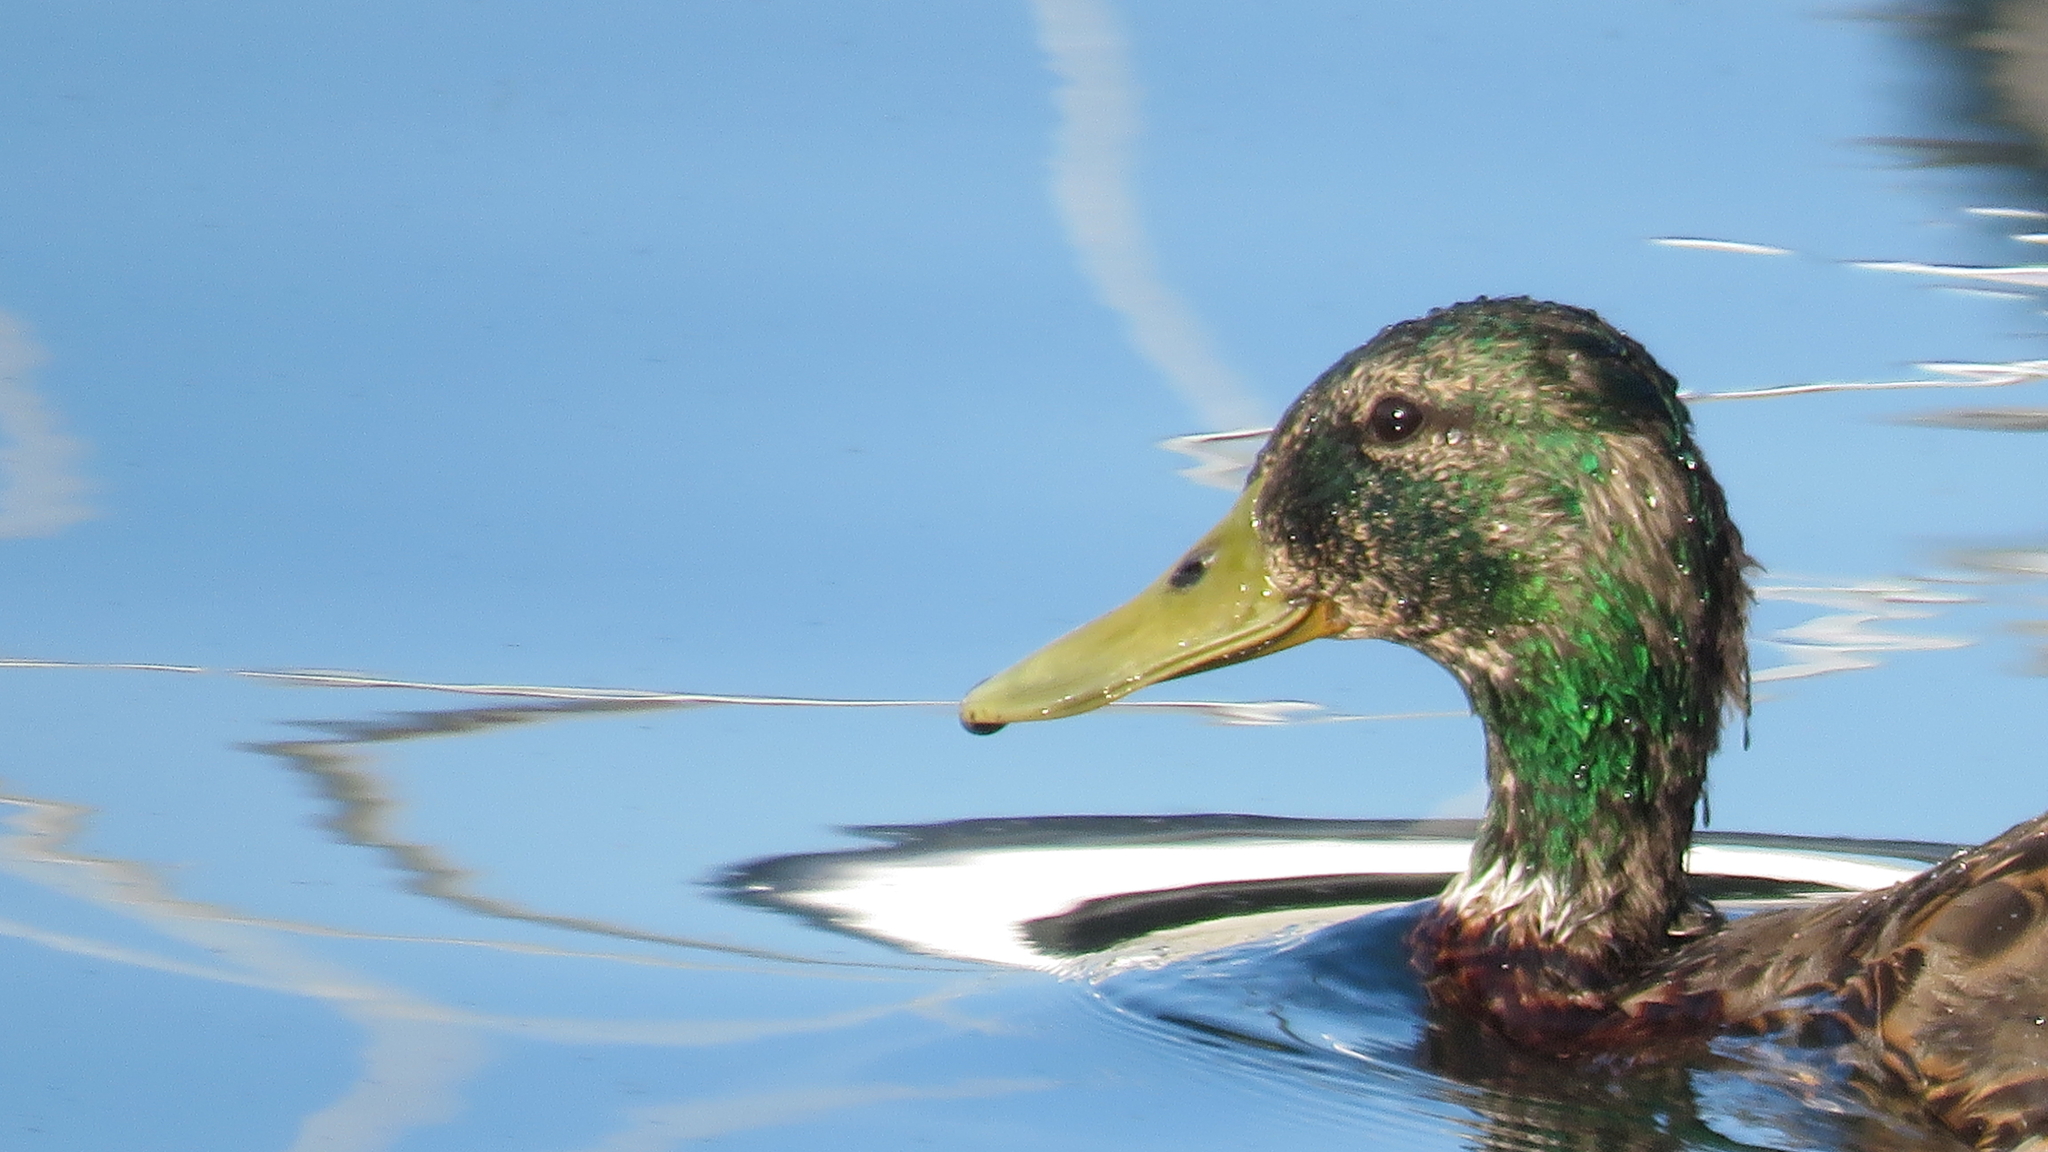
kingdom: Animalia
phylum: Chordata
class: Aves
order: Anseriformes
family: Anatidae
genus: Anas
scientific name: Anas platyrhynchos
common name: Mallard
